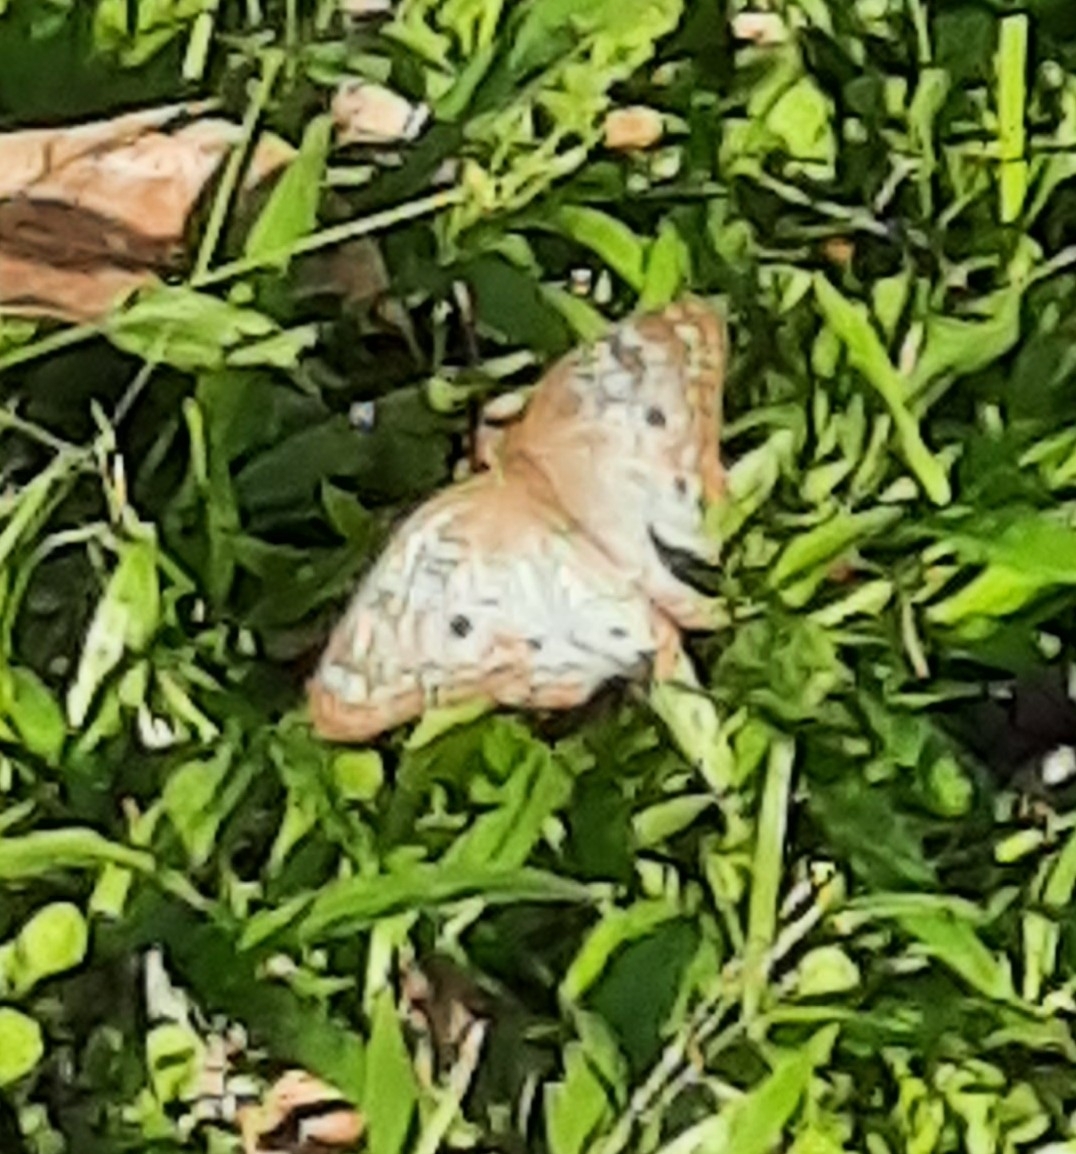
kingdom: Animalia
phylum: Arthropoda
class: Insecta
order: Lepidoptera
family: Nymphalidae
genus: Anartia
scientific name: Anartia jatrophae
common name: White peacock
